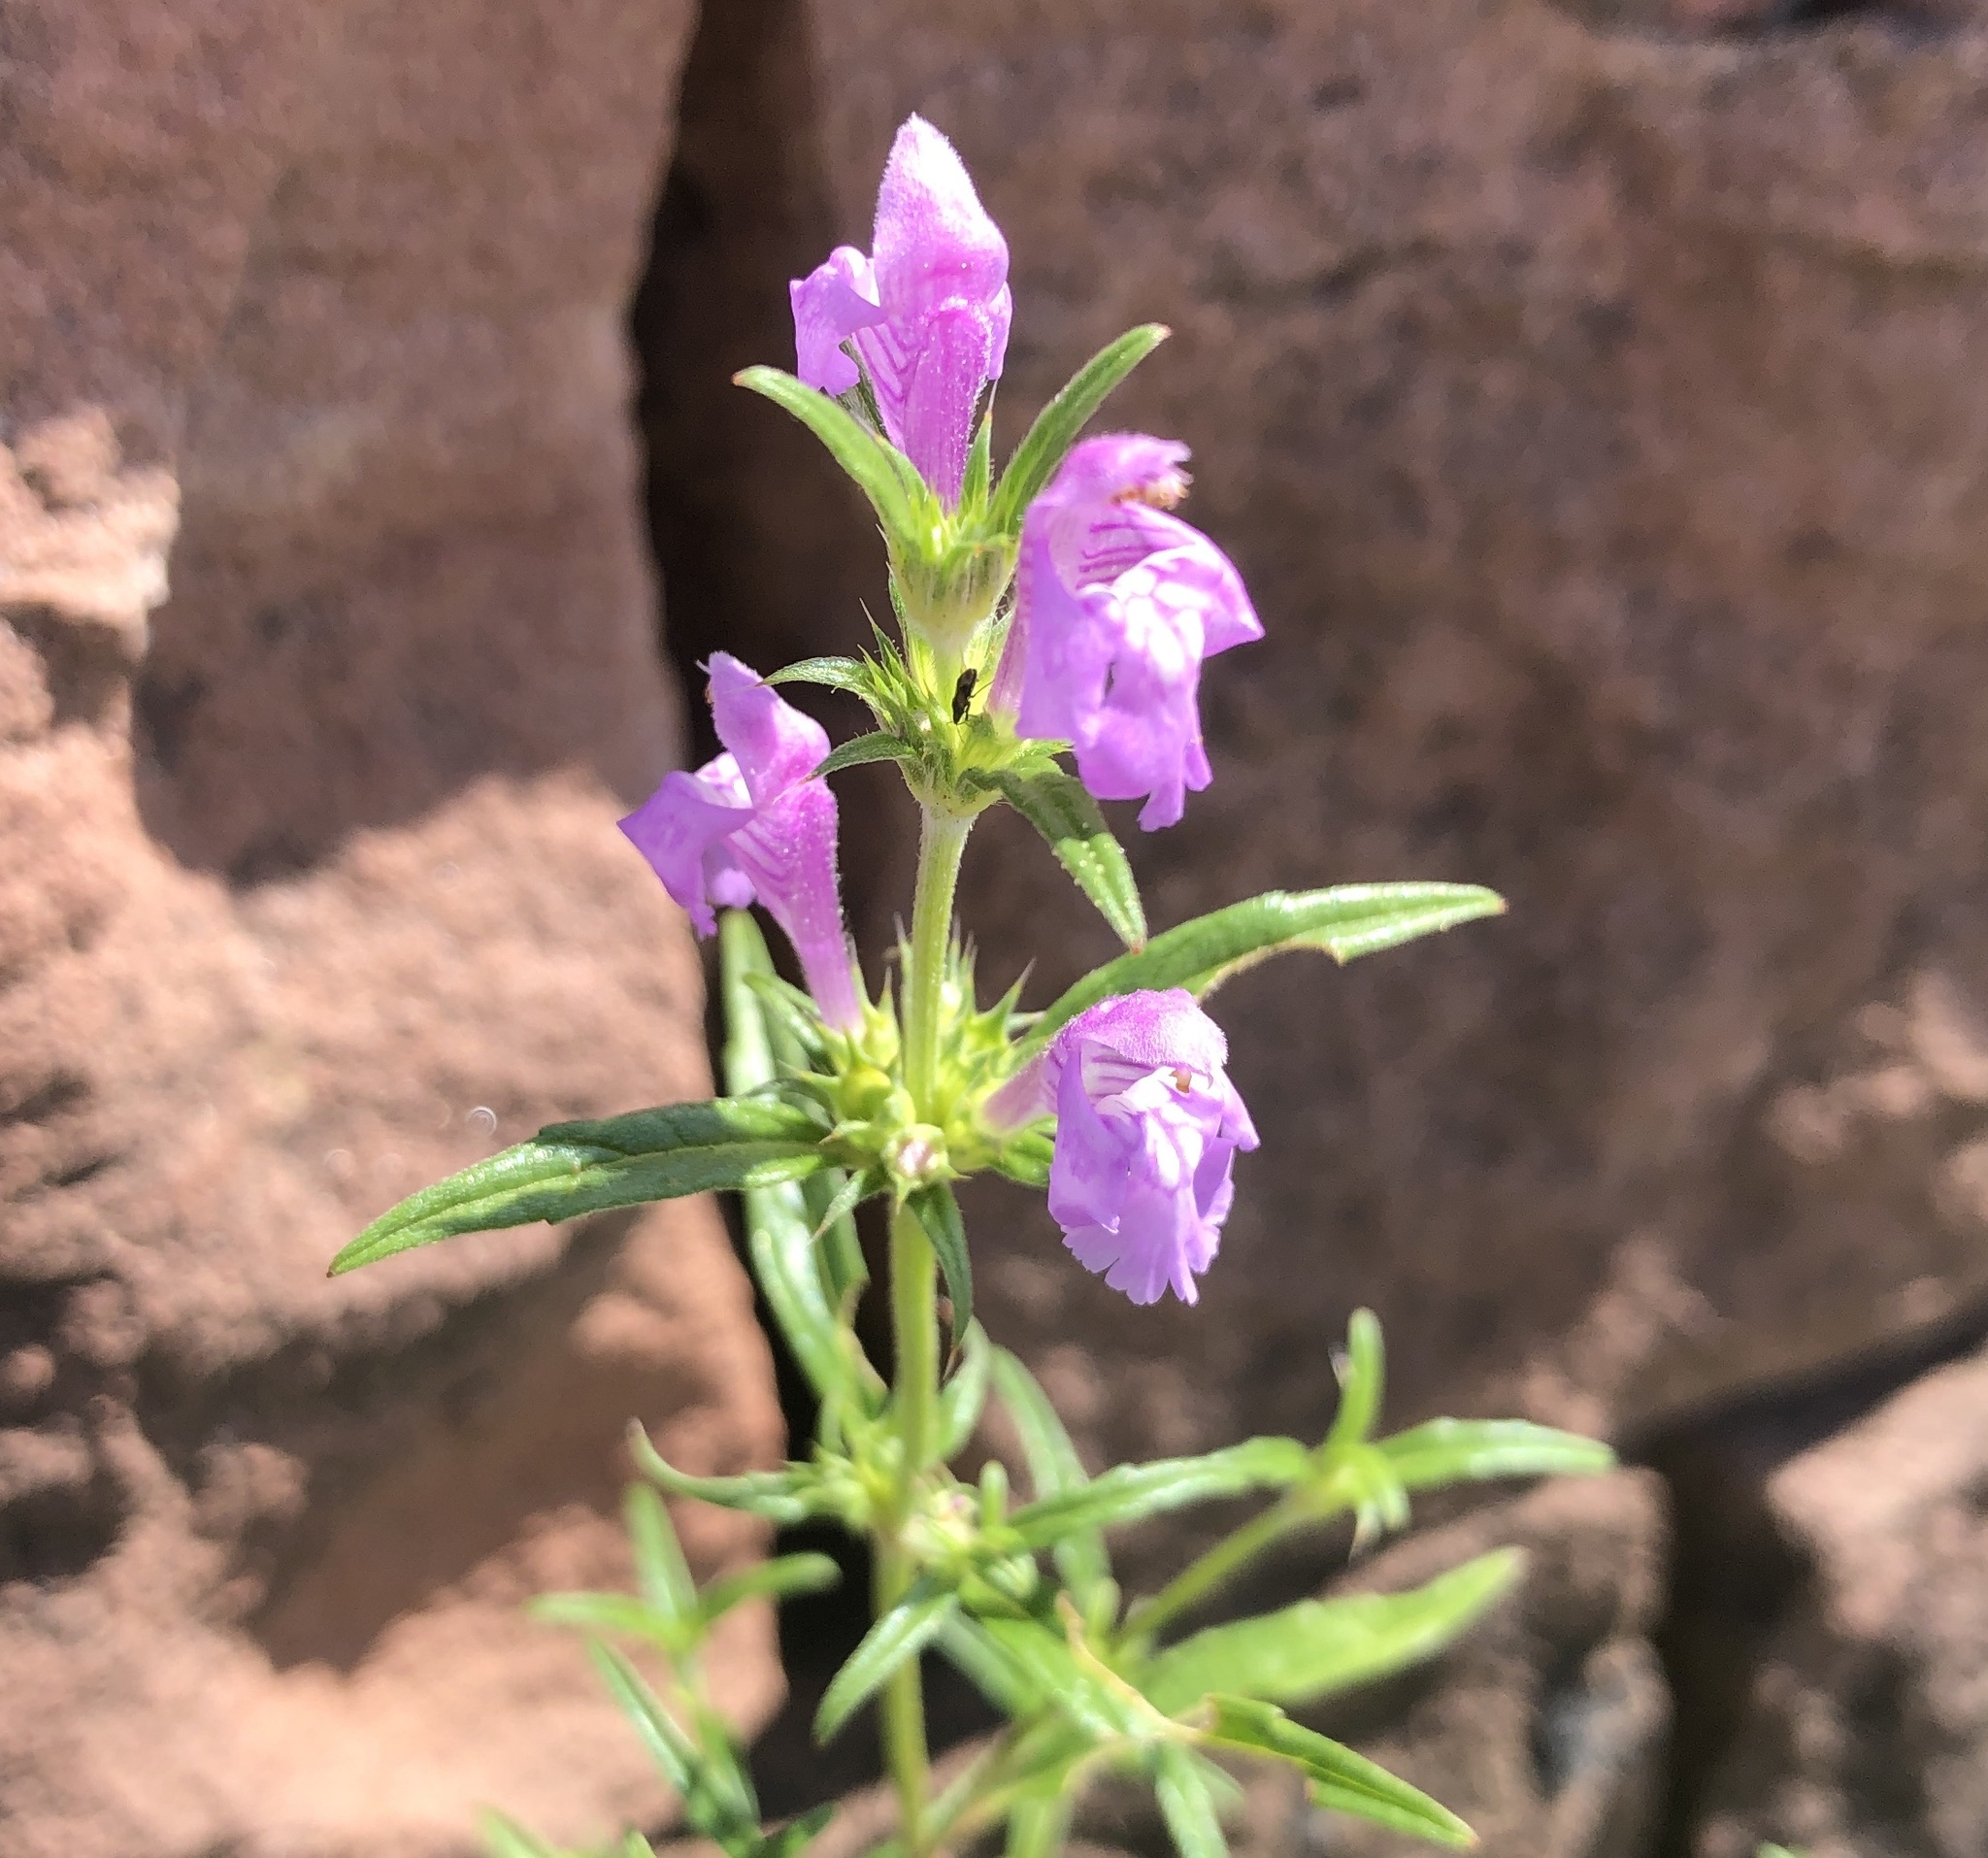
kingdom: Plantae
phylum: Tracheophyta
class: Magnoliopsida
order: Lamiales
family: Lamiaceae
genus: Galeopsis
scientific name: Galeopsis angustifolia
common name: Red hemp-nettle
